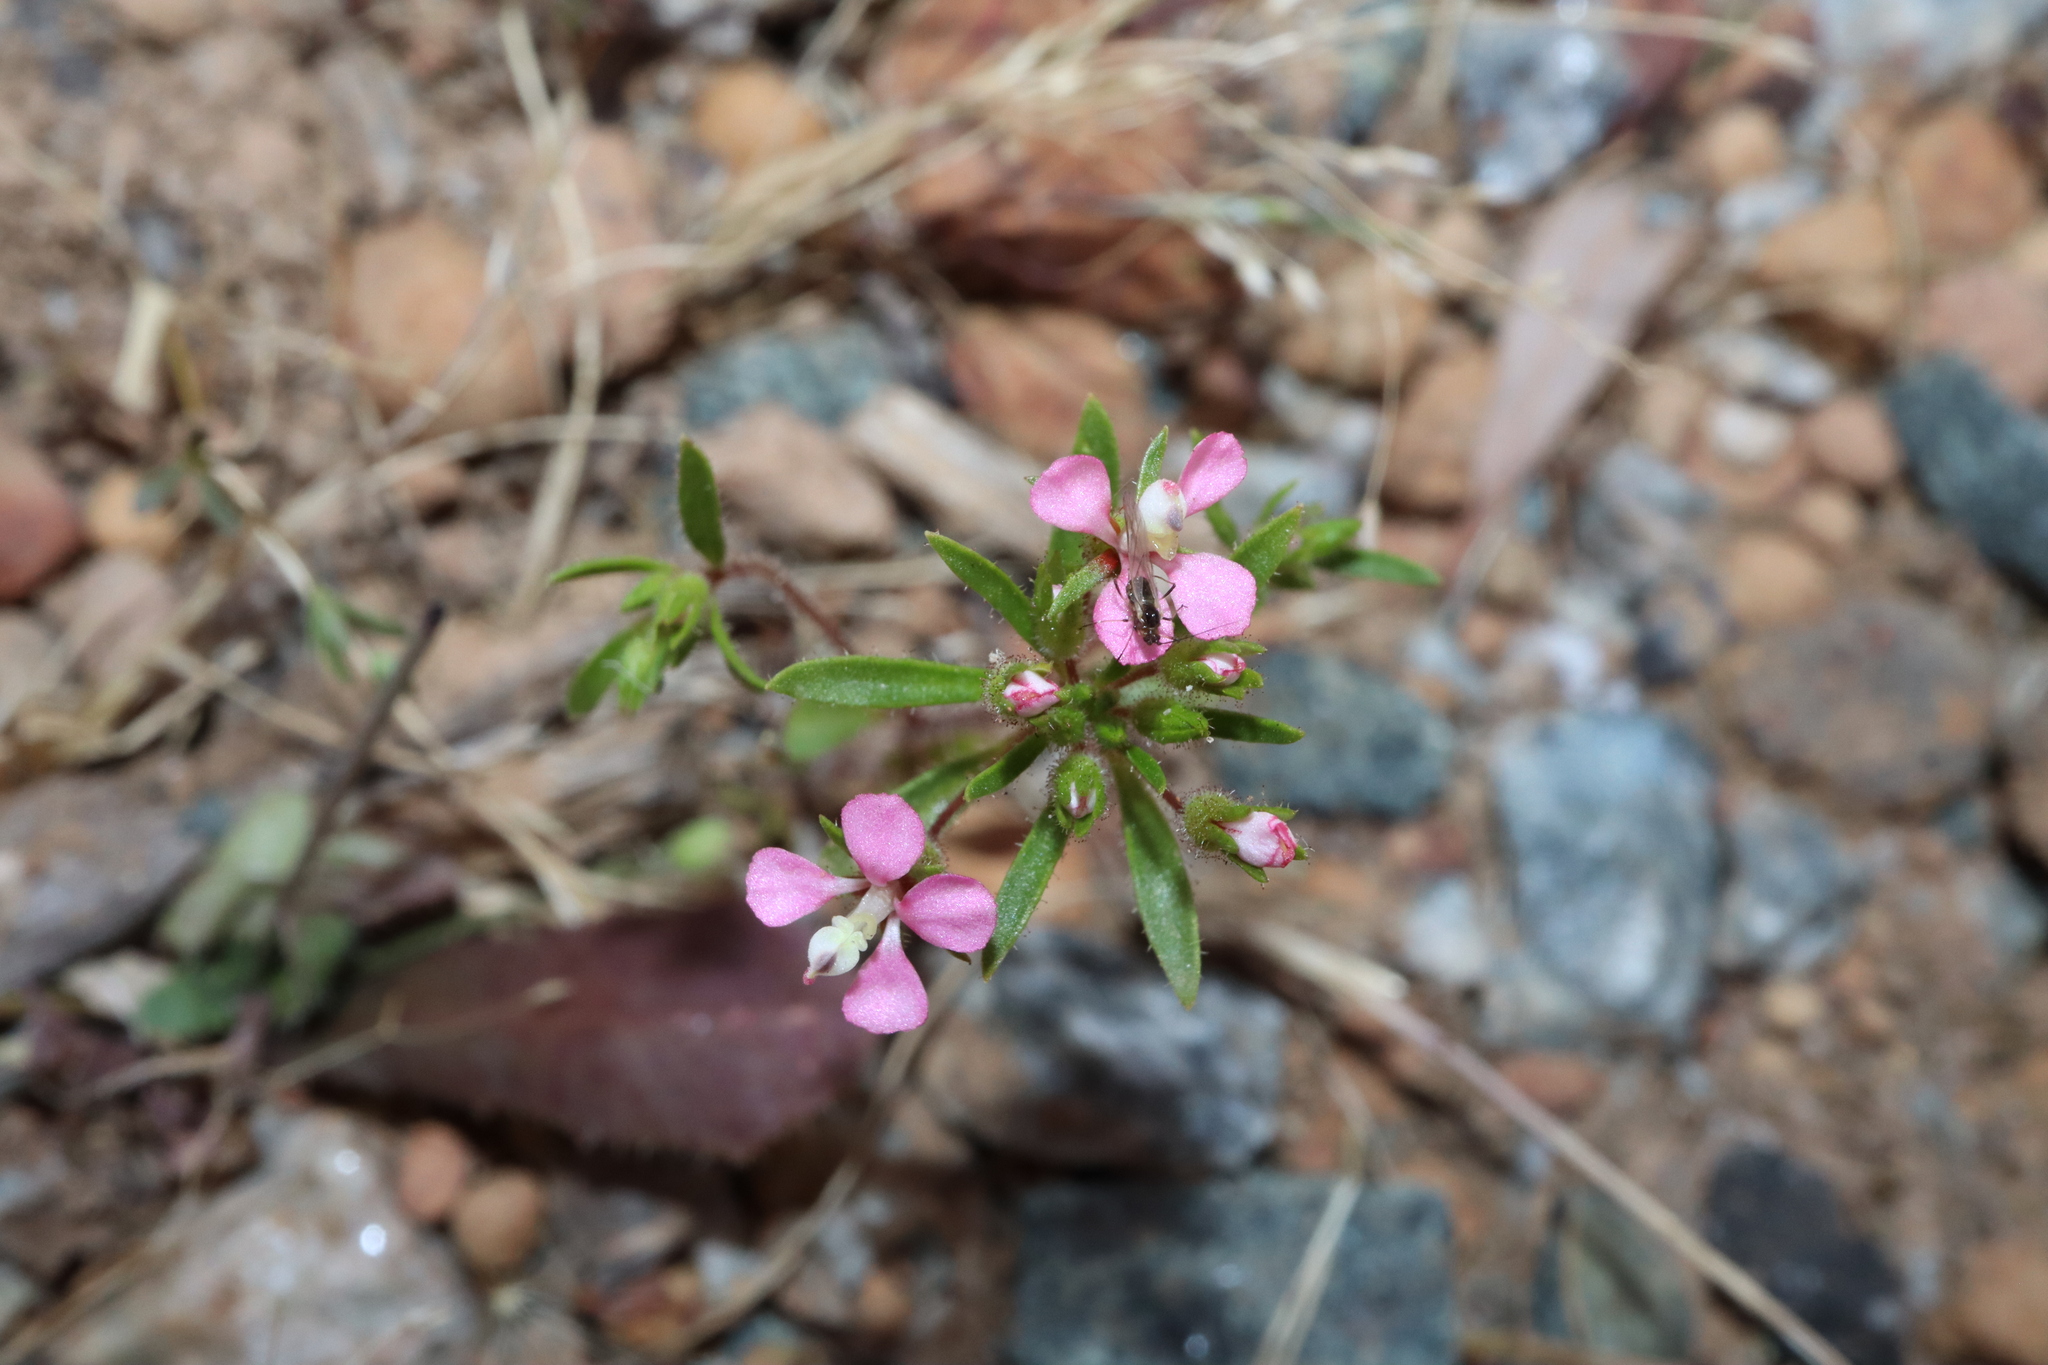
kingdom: Plantae
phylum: Tracheophyta
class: Magnoliopsida
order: Asterales
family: Stylidiaceae
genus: Levenhookia
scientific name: Levenhookia stipitata
